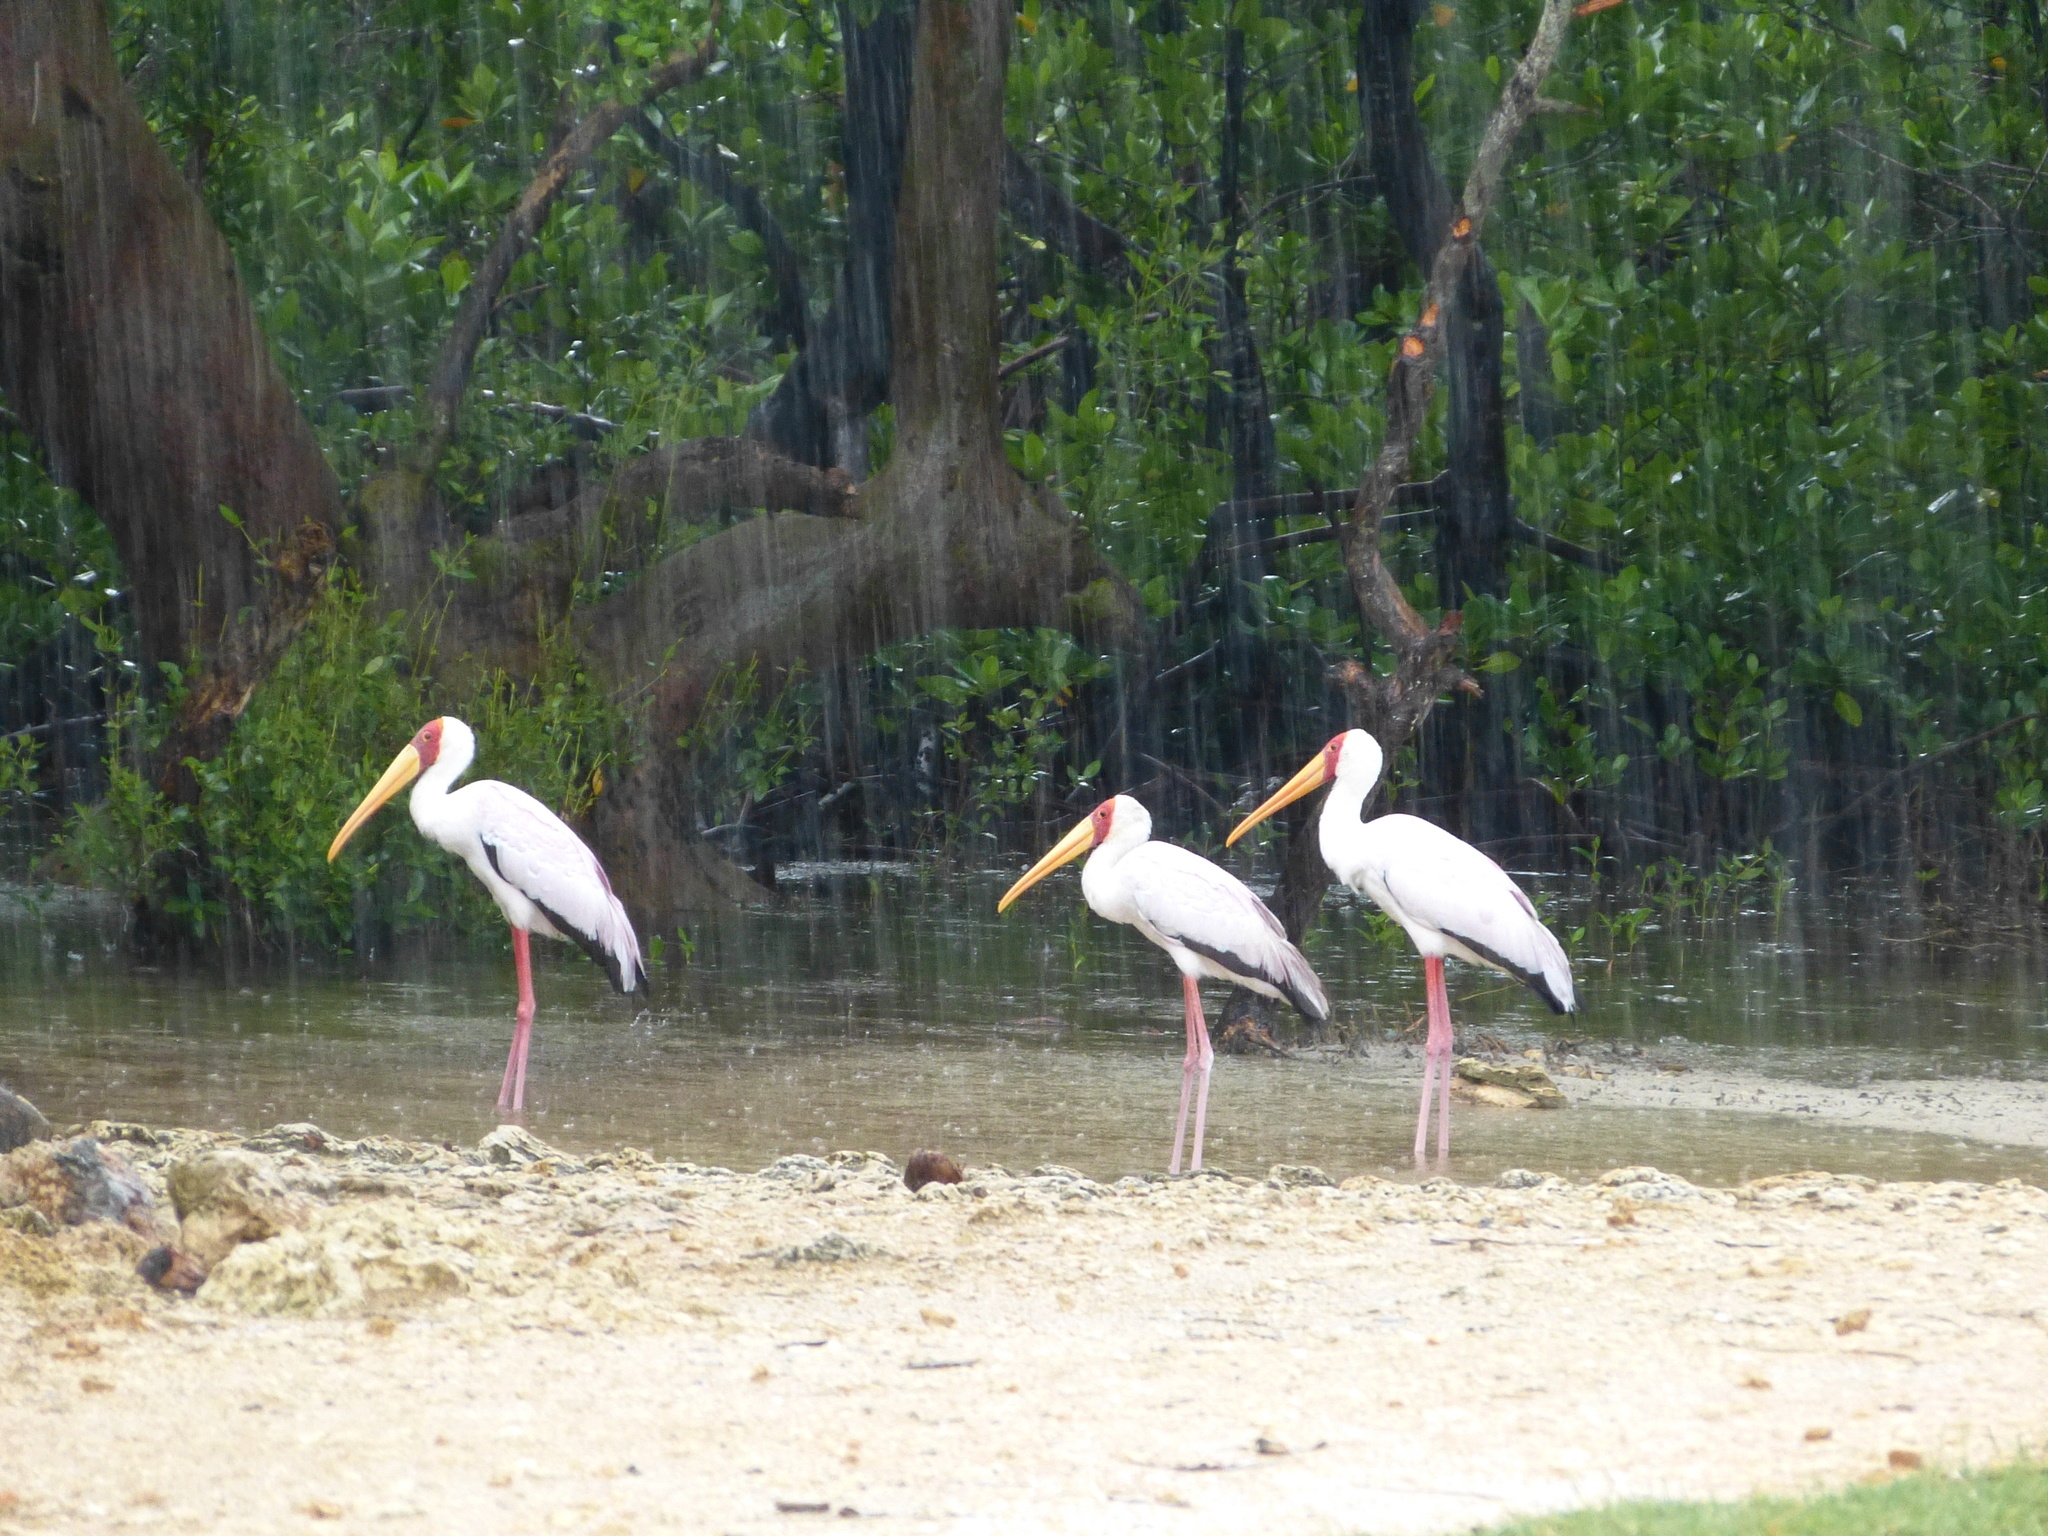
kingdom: Animalia
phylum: Chordata
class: Aves
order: Ciconiiformes
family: Ciconiidae
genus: Mycteria
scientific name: Mycteria ibis
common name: Yellow-billed stork
